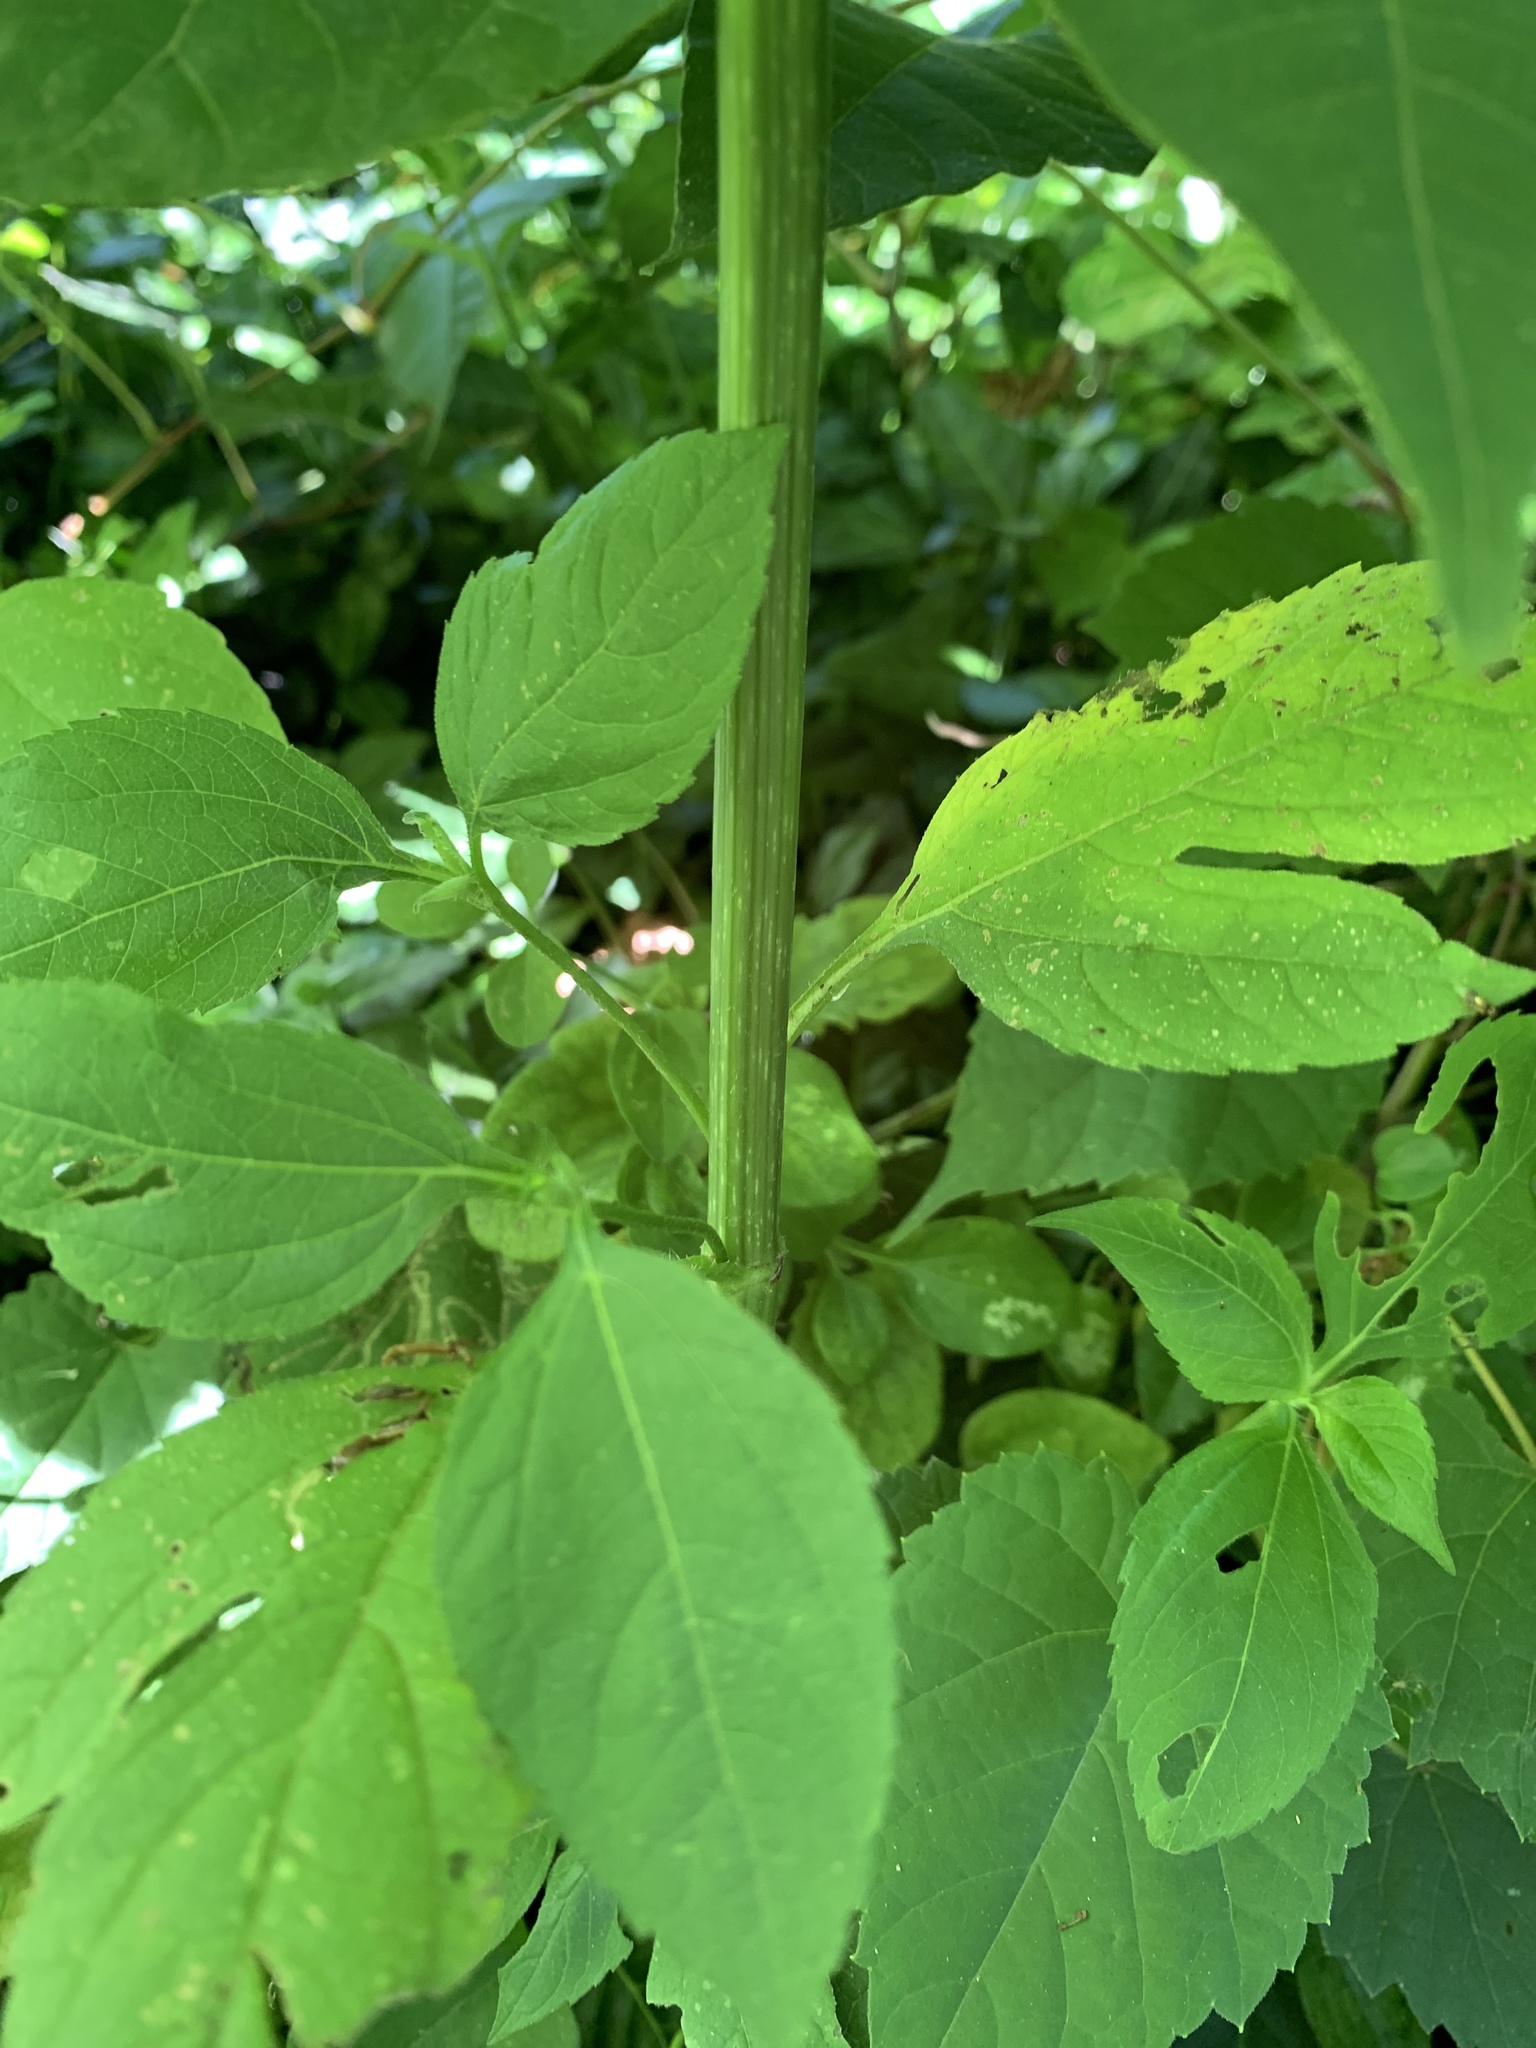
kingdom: Plantae
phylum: Tracheophyta
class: Magnoliopsida
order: Asterales
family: Asteraceae
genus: Ambrosia
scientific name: Ambrosia trifida
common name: Giant ragweed
